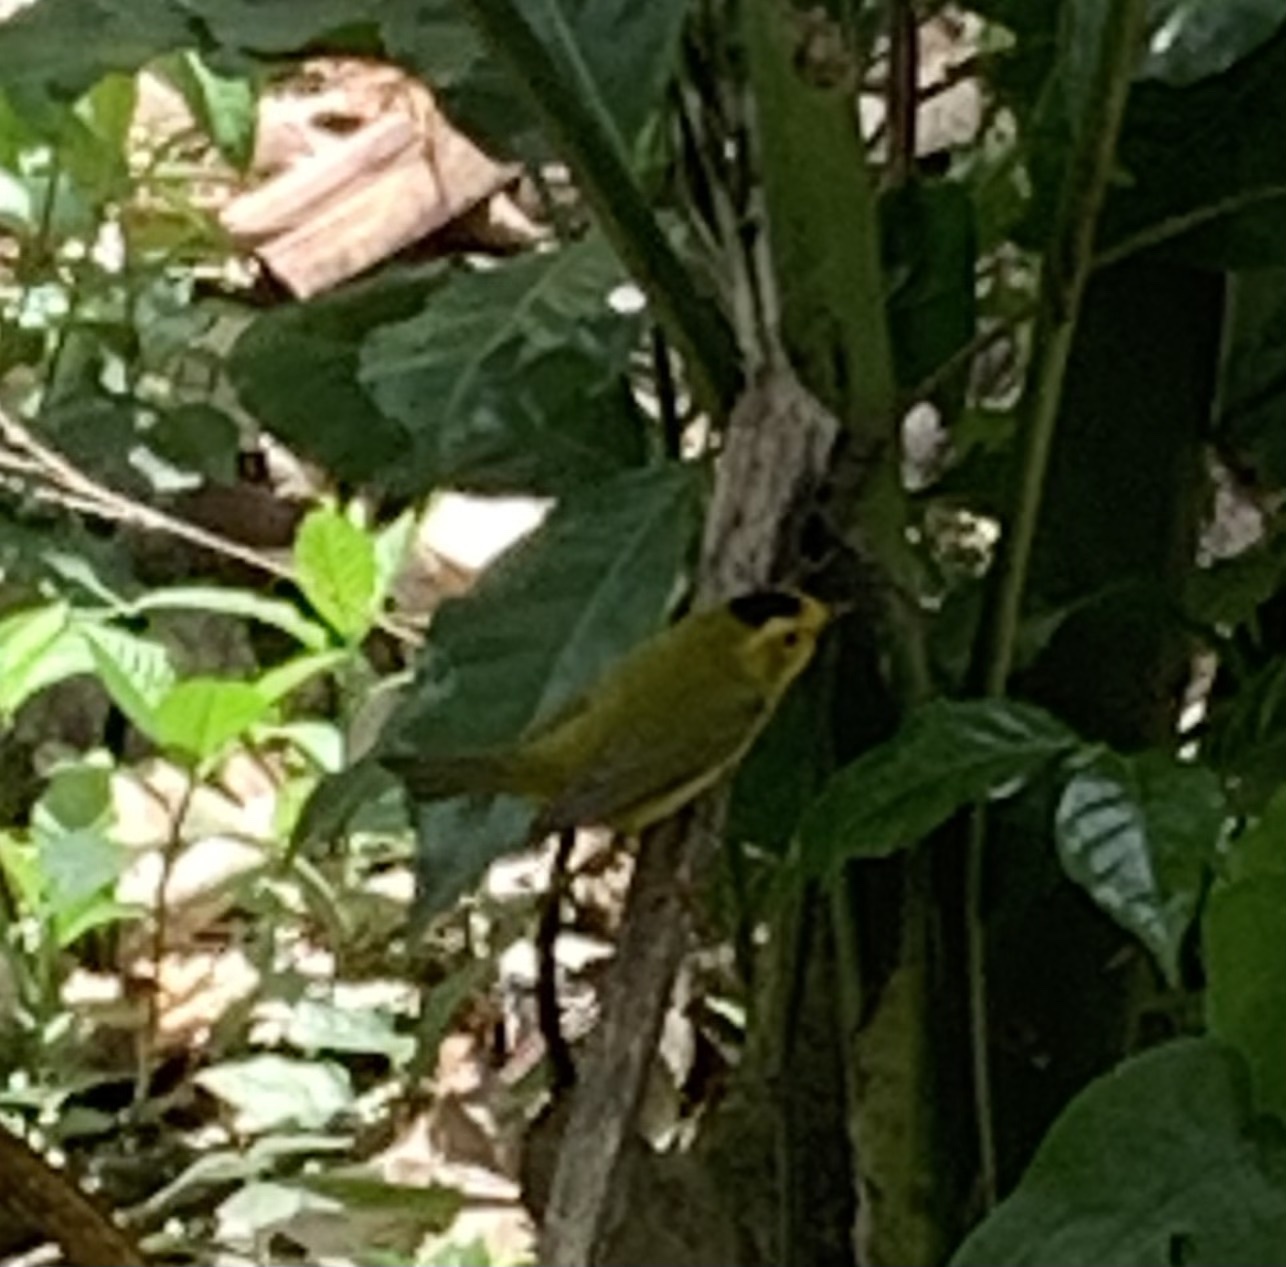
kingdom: Animalia
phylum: Chordata
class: Aves
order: Passeriformes
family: Parulidae
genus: Cardellina
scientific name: Cardellina pusilla
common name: Wilson's warbler
